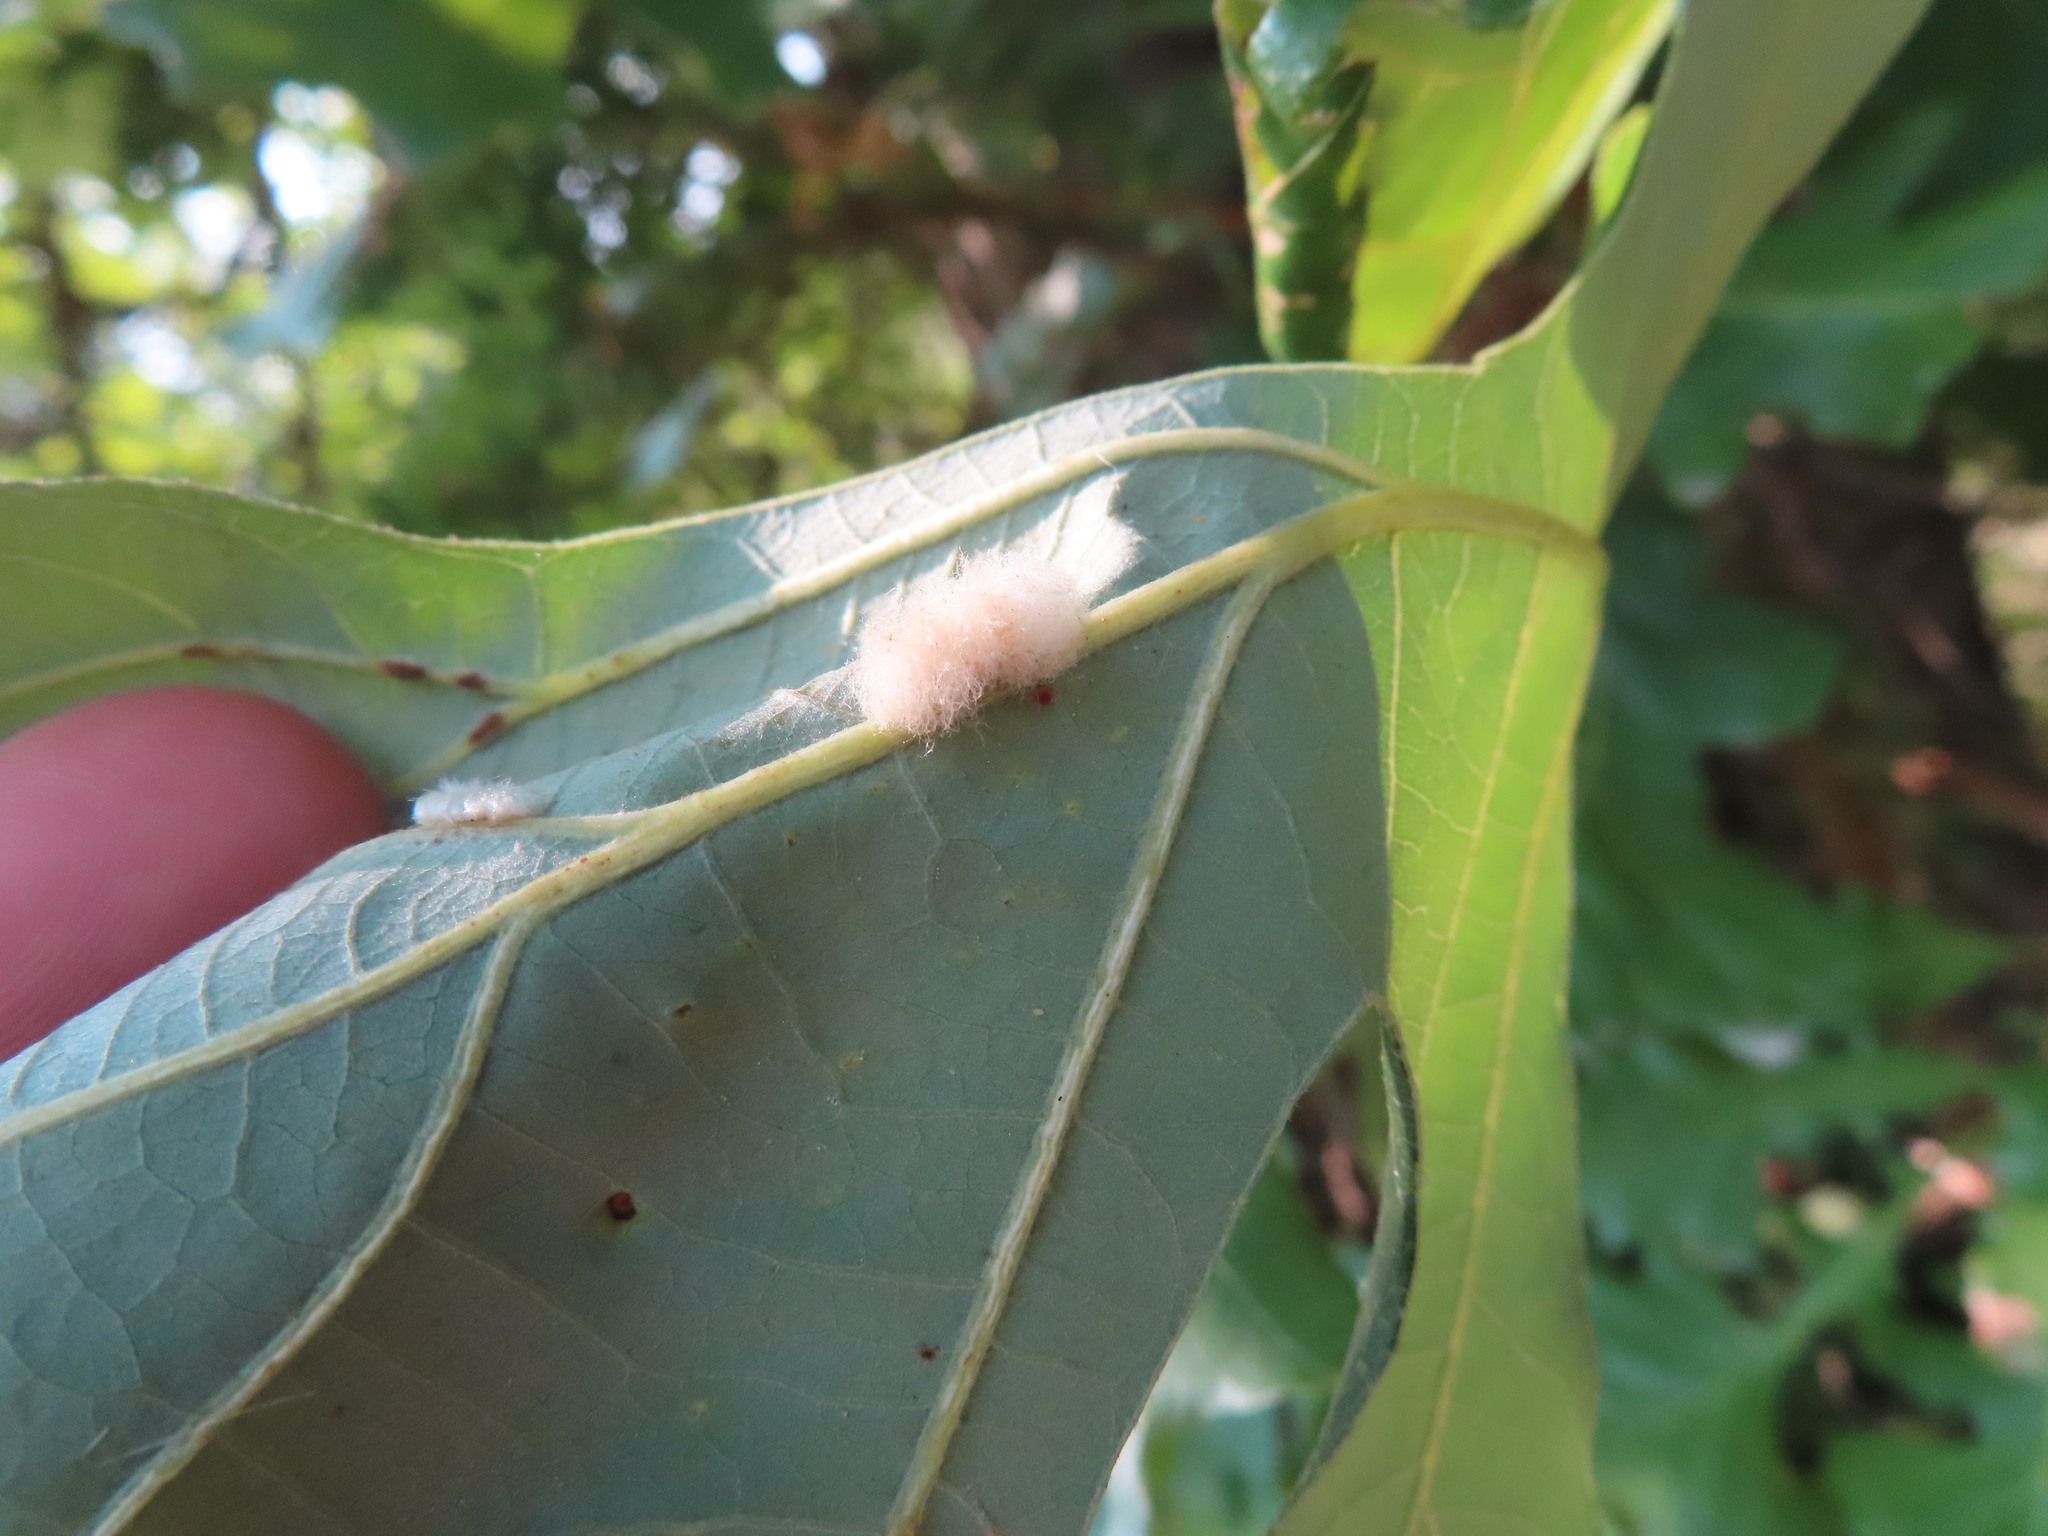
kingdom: Animalia
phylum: Arthropoda
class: Insecta
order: Hymenoptera
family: Cynipidae
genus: Andricus
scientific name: Andricus Druon ignotum
